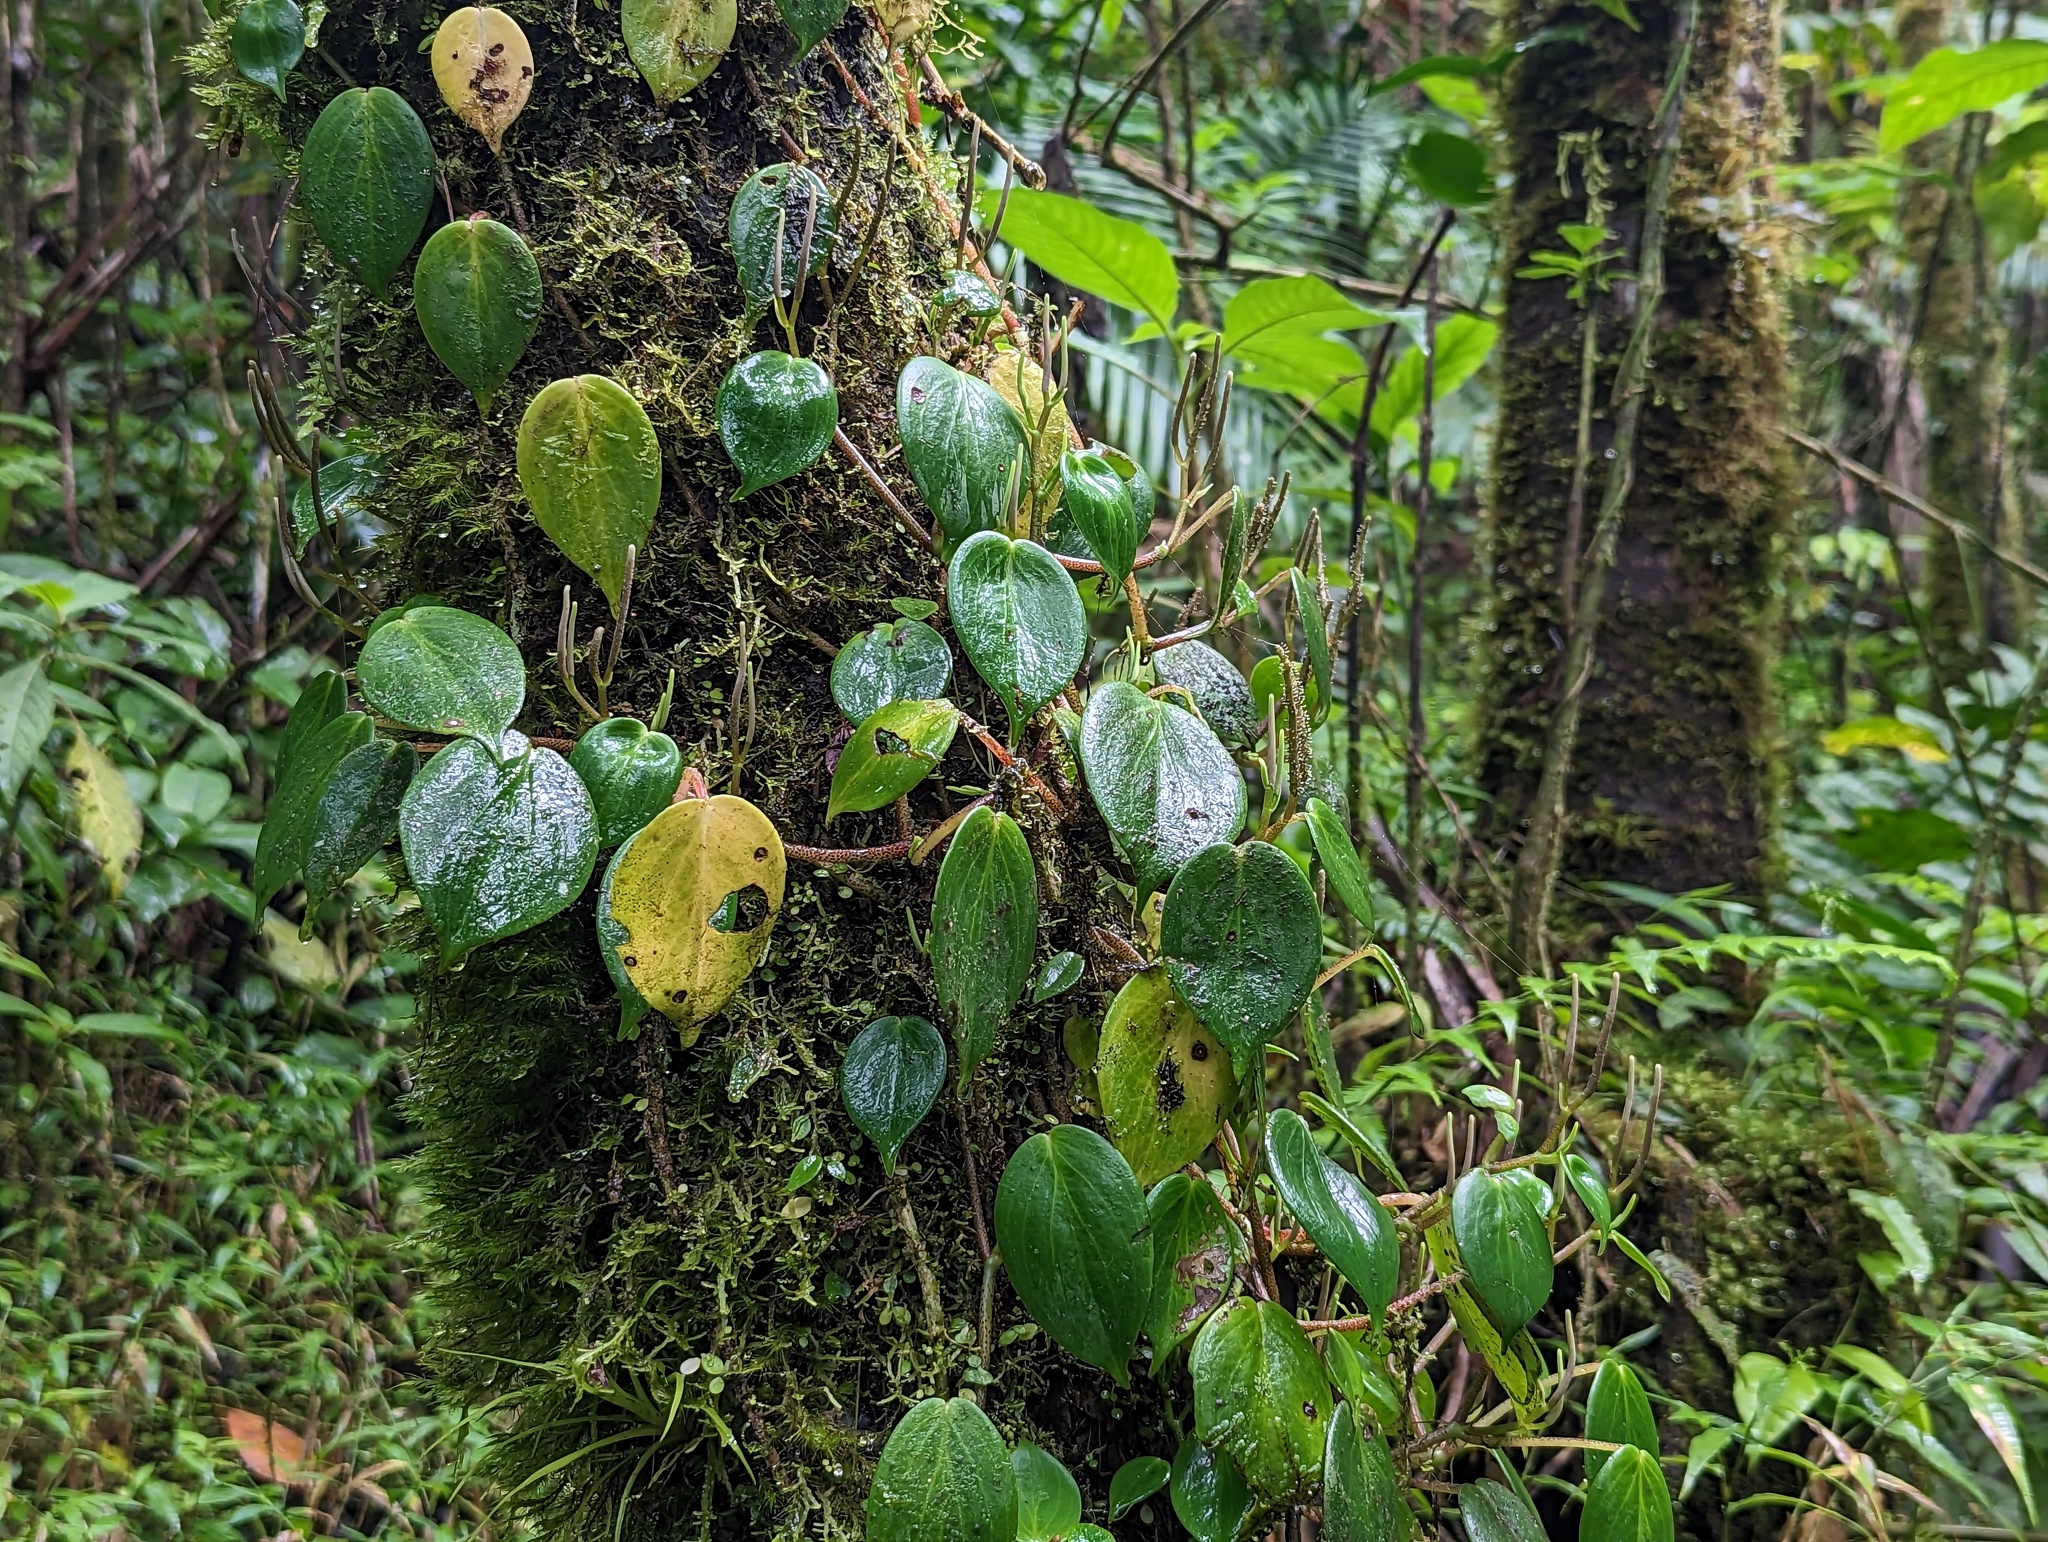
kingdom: Plantae
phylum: Tracheophyta
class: Magnoliopsida
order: Piperales
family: Piperaceae
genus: Peperomia
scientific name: Peperomia distachyos
